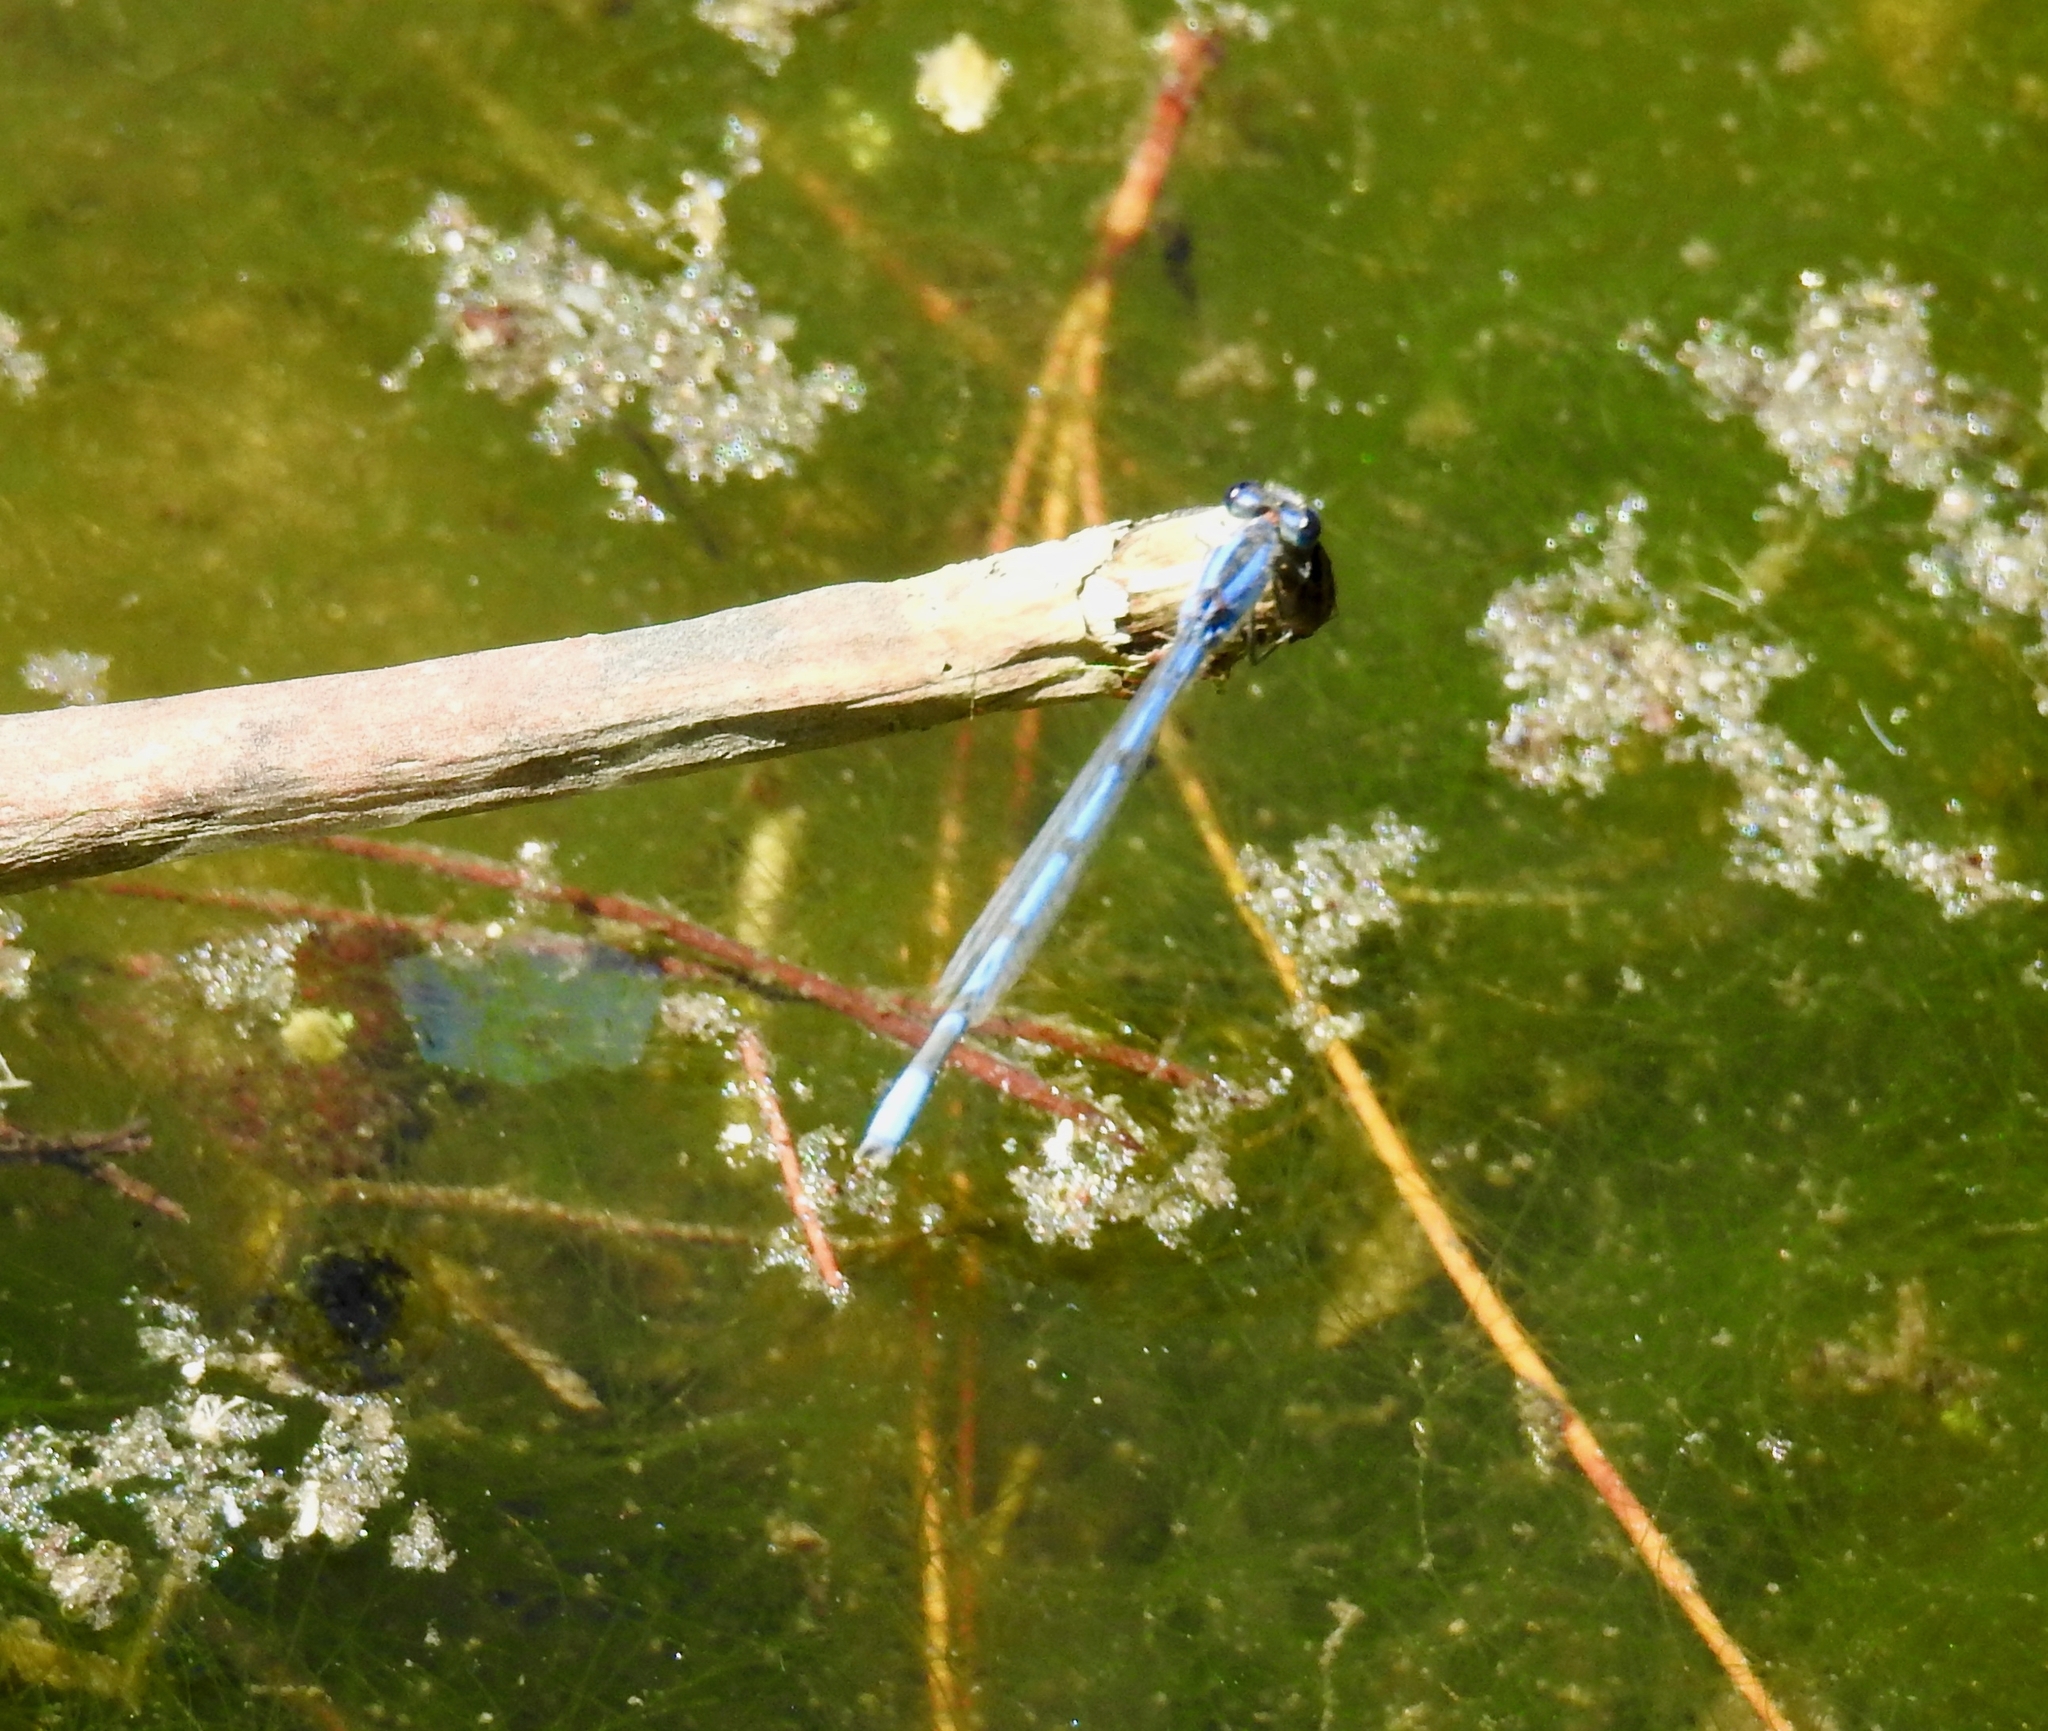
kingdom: Animalia
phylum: Arthropoda
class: Insecta
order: Odonata
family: Coenagrionidae
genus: Enallagma
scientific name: Enallagma civile
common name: Damselfly
